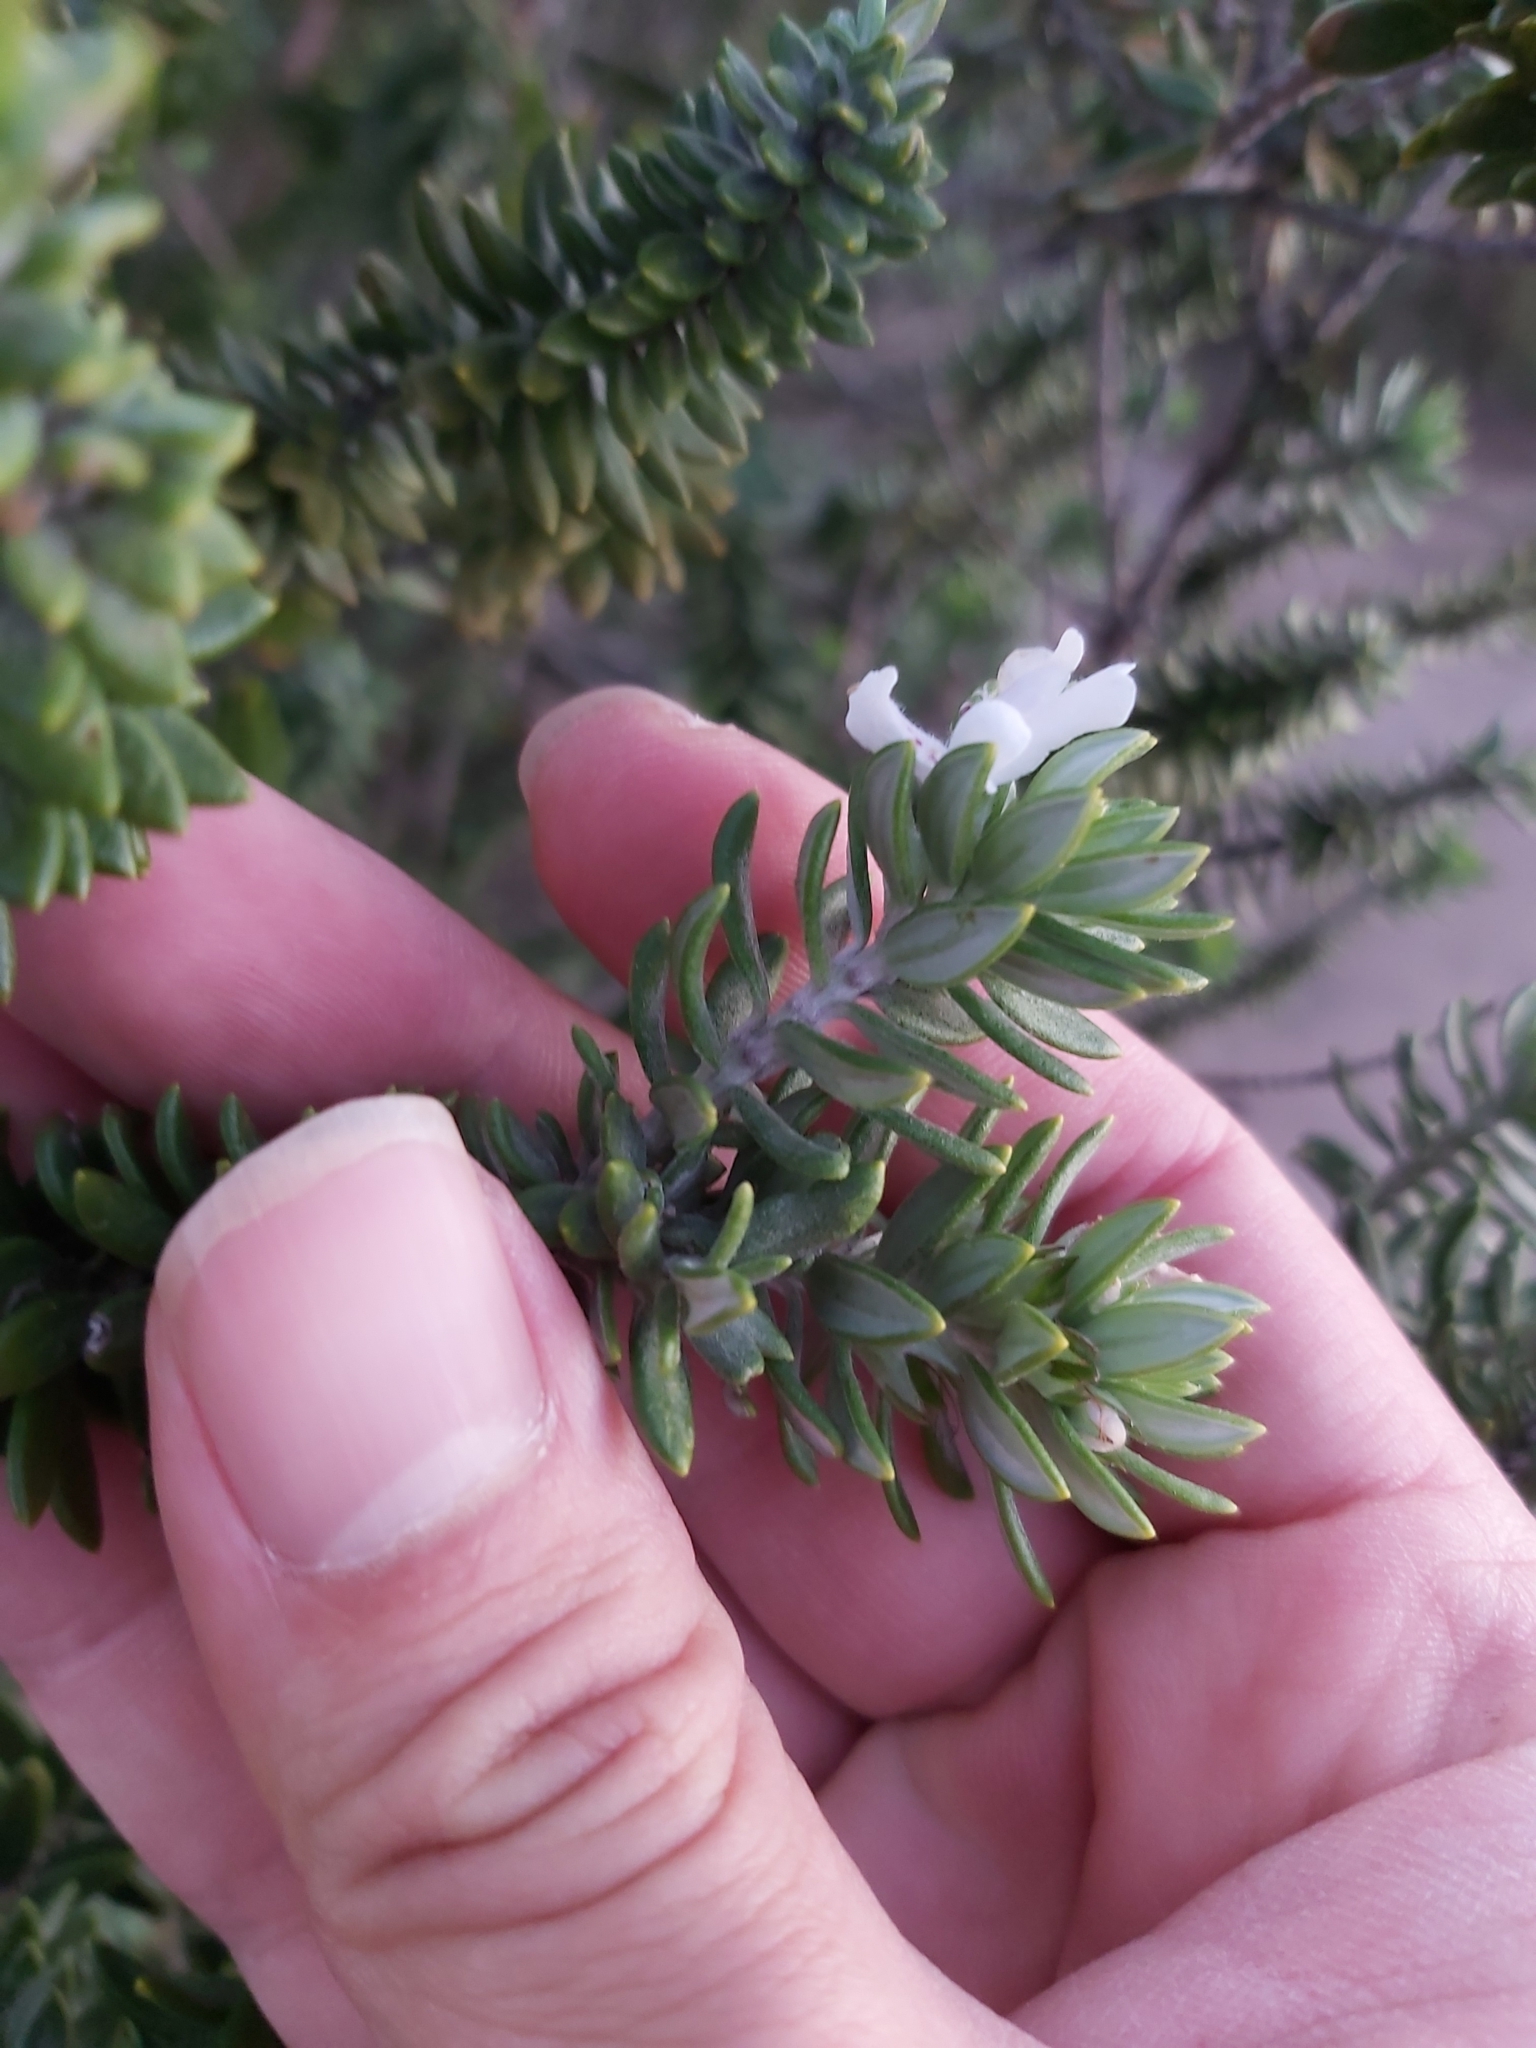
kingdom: Plantae
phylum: Tracheophyta
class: Magnoliopsida
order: Lamiales
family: Lamiaceae
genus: Westringia
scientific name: Westringia fruticosa
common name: Coastal-rosemary
